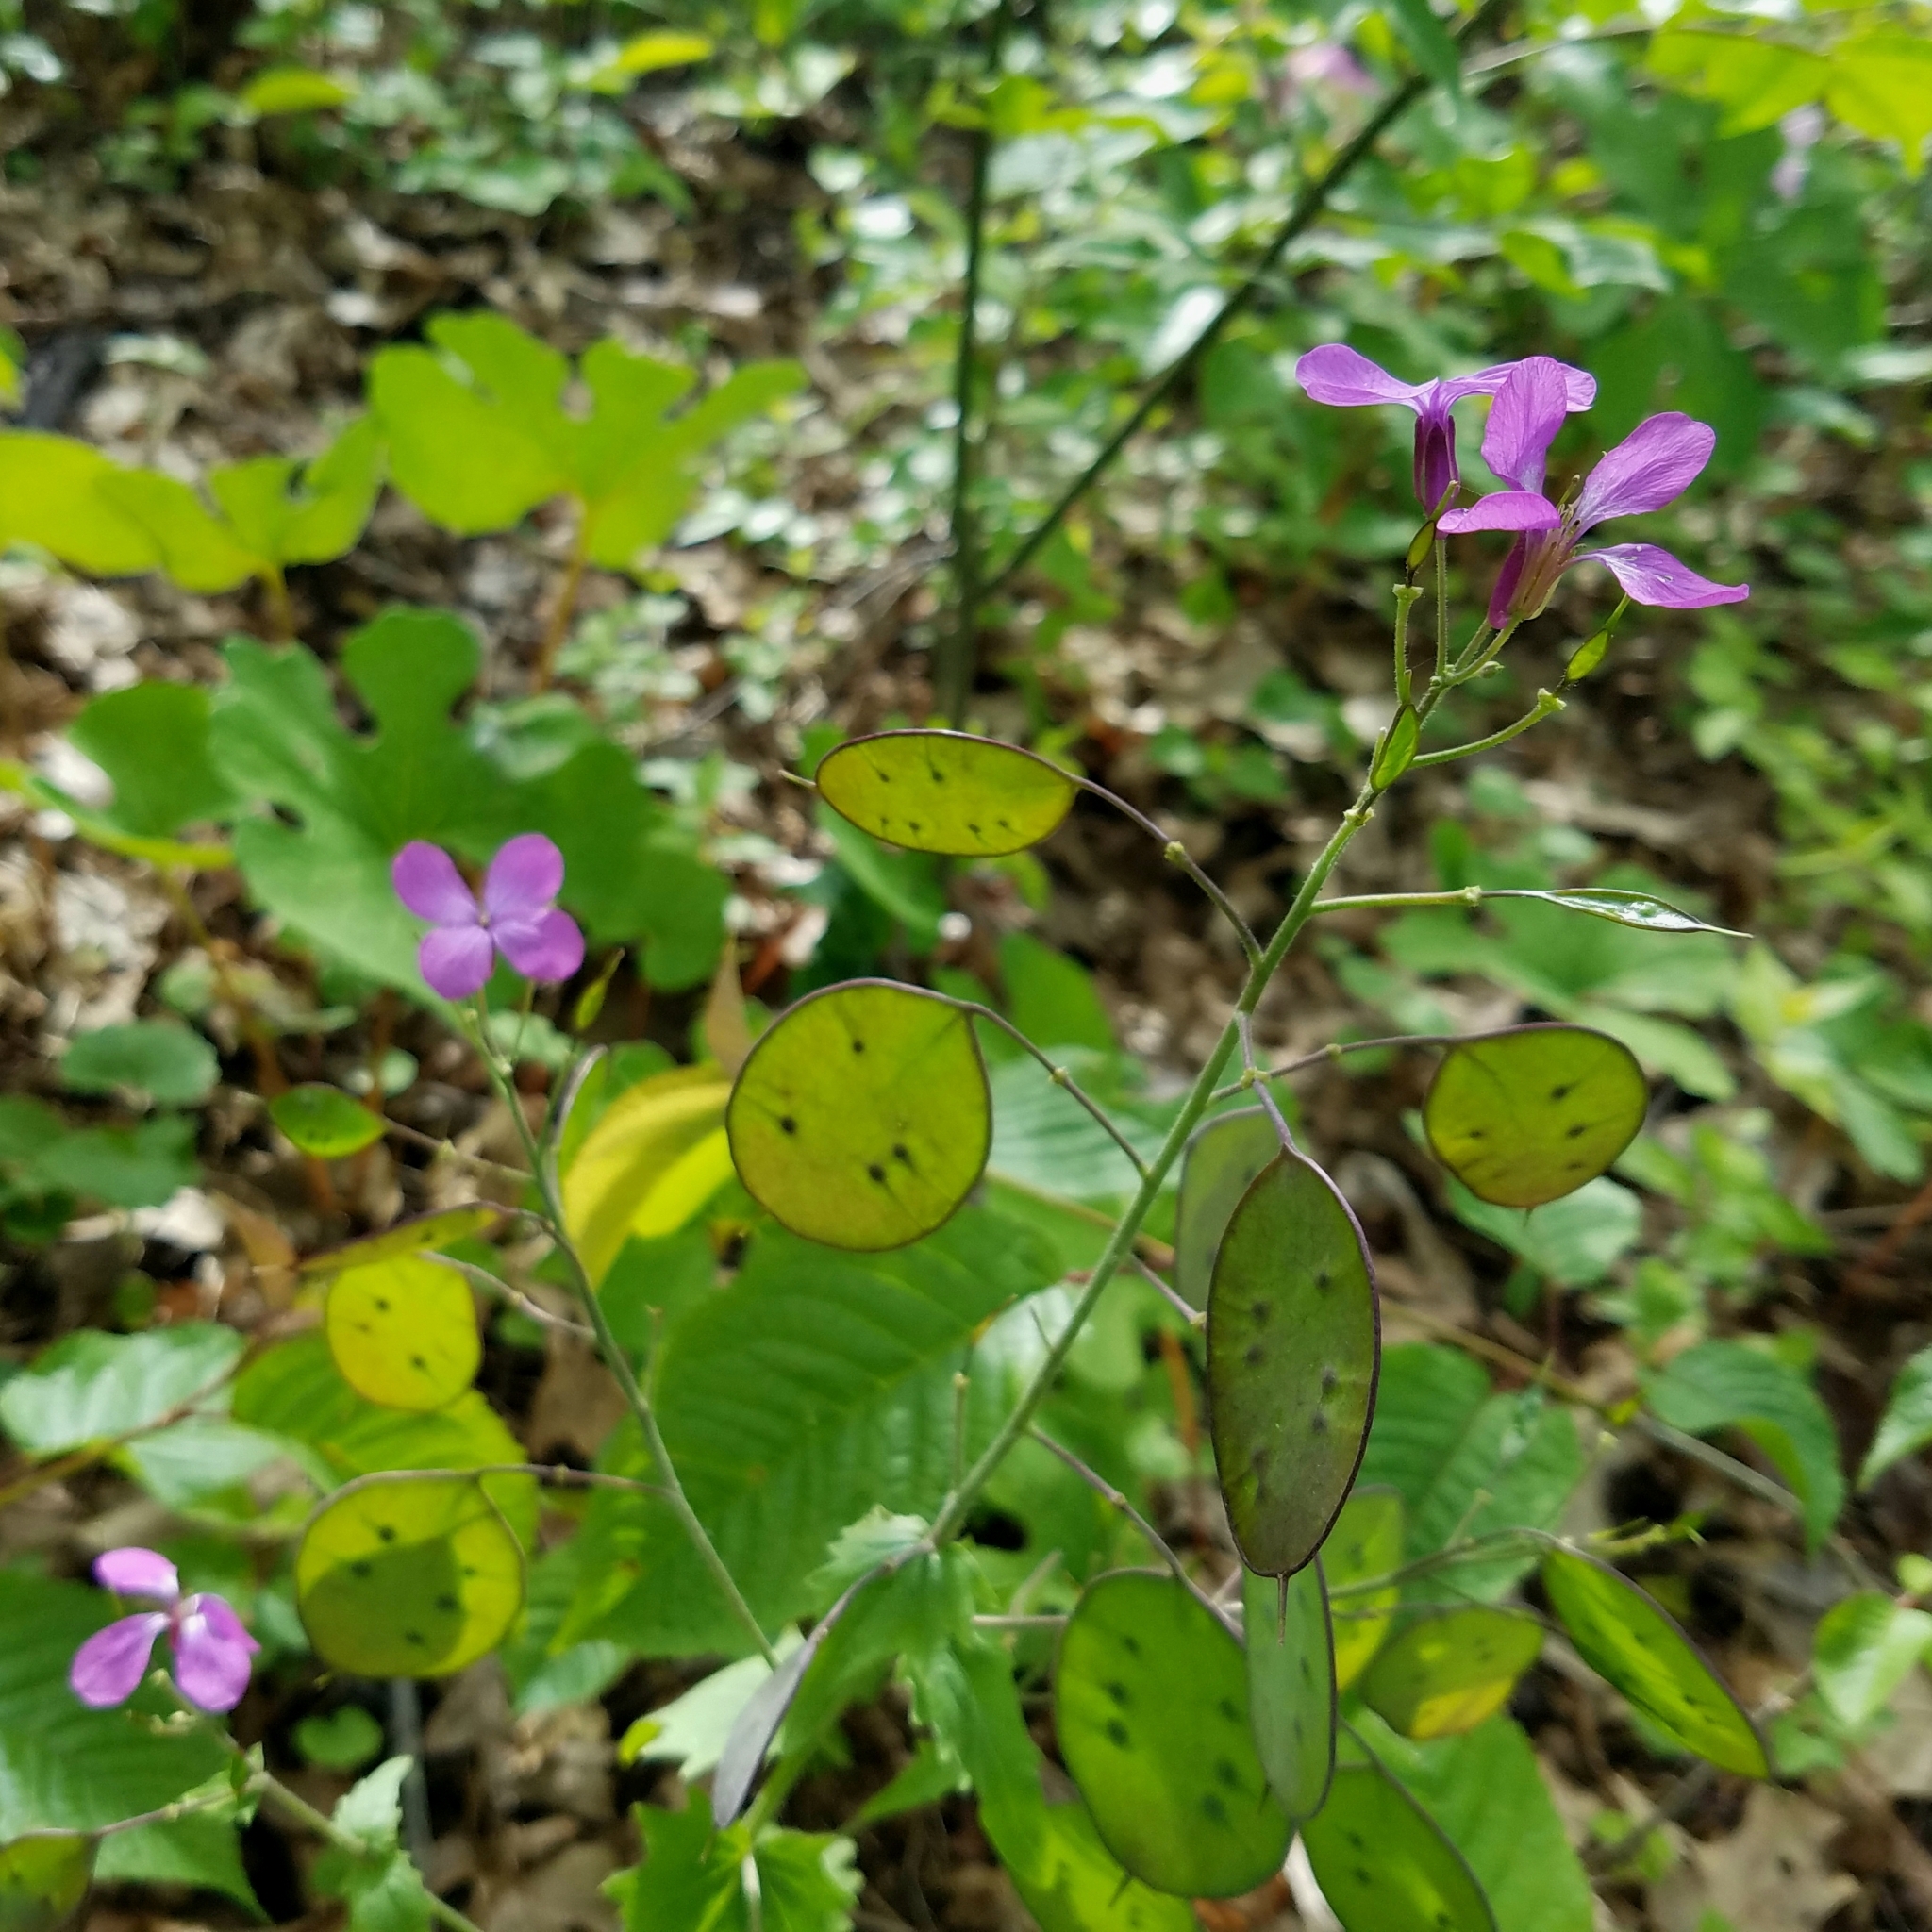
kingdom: Plantae
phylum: Tracheophyta
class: Magnoliopsida
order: Brassicales
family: Brassicaceae
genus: Lunaria
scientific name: Lunaria annua
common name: Honesty
